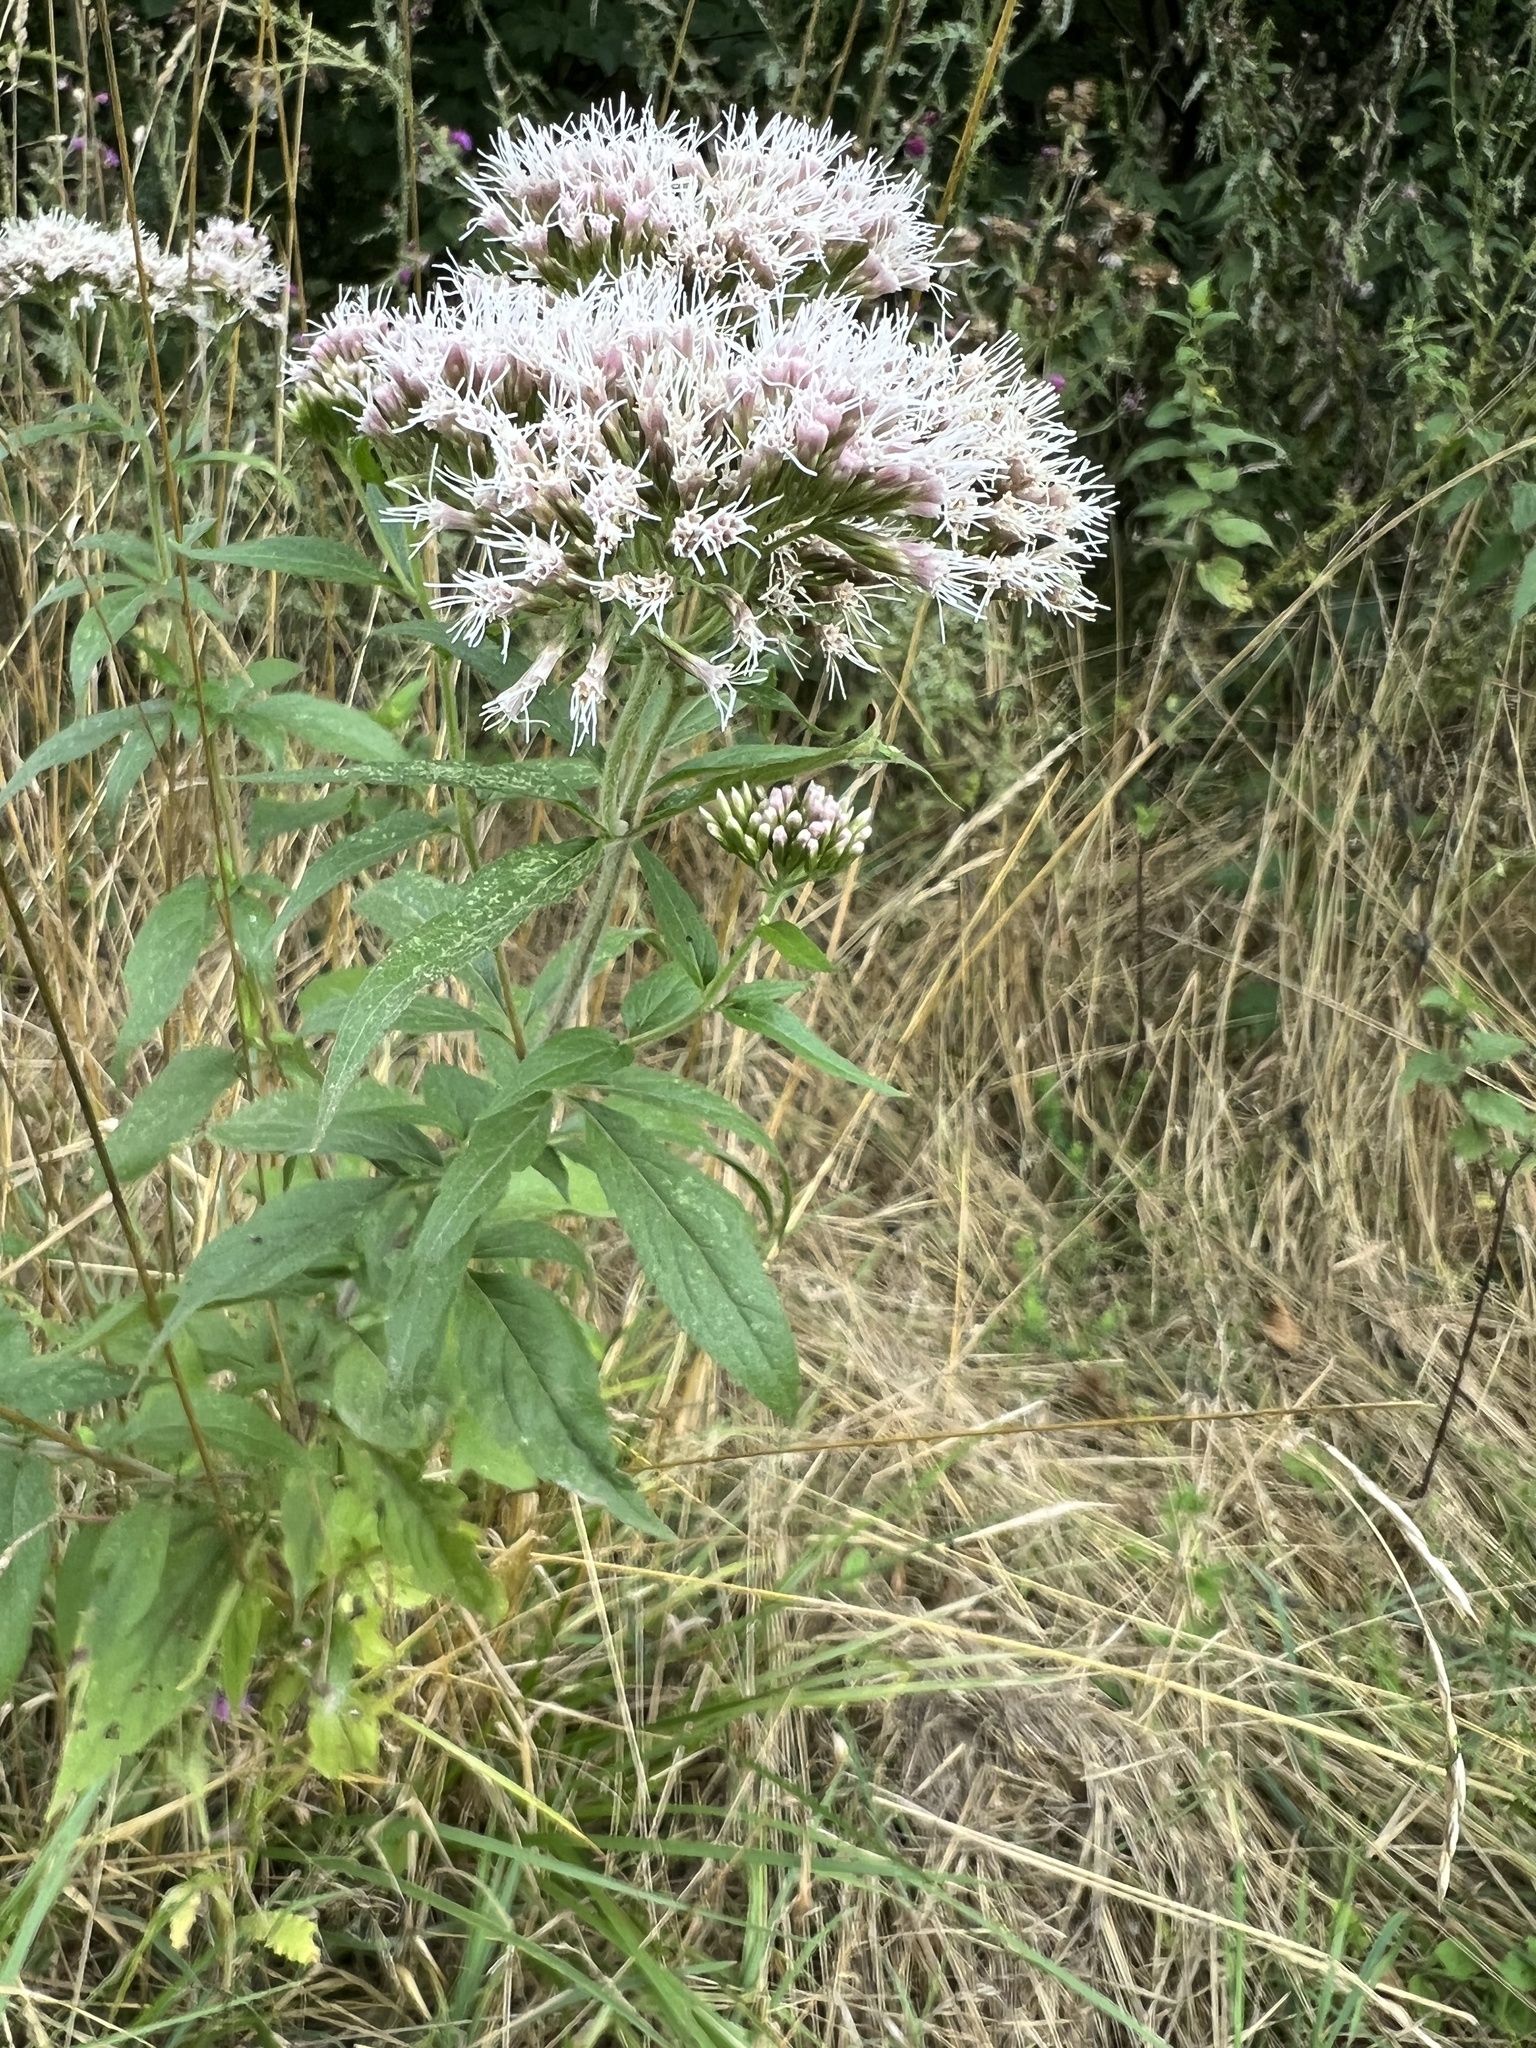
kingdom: Plantae
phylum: Tracheophyta
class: Magnoliopsida
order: Asterales
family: Asteraceae
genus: Eupatorium
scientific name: Eupatorium cannabinum
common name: Hemp-agrimony
